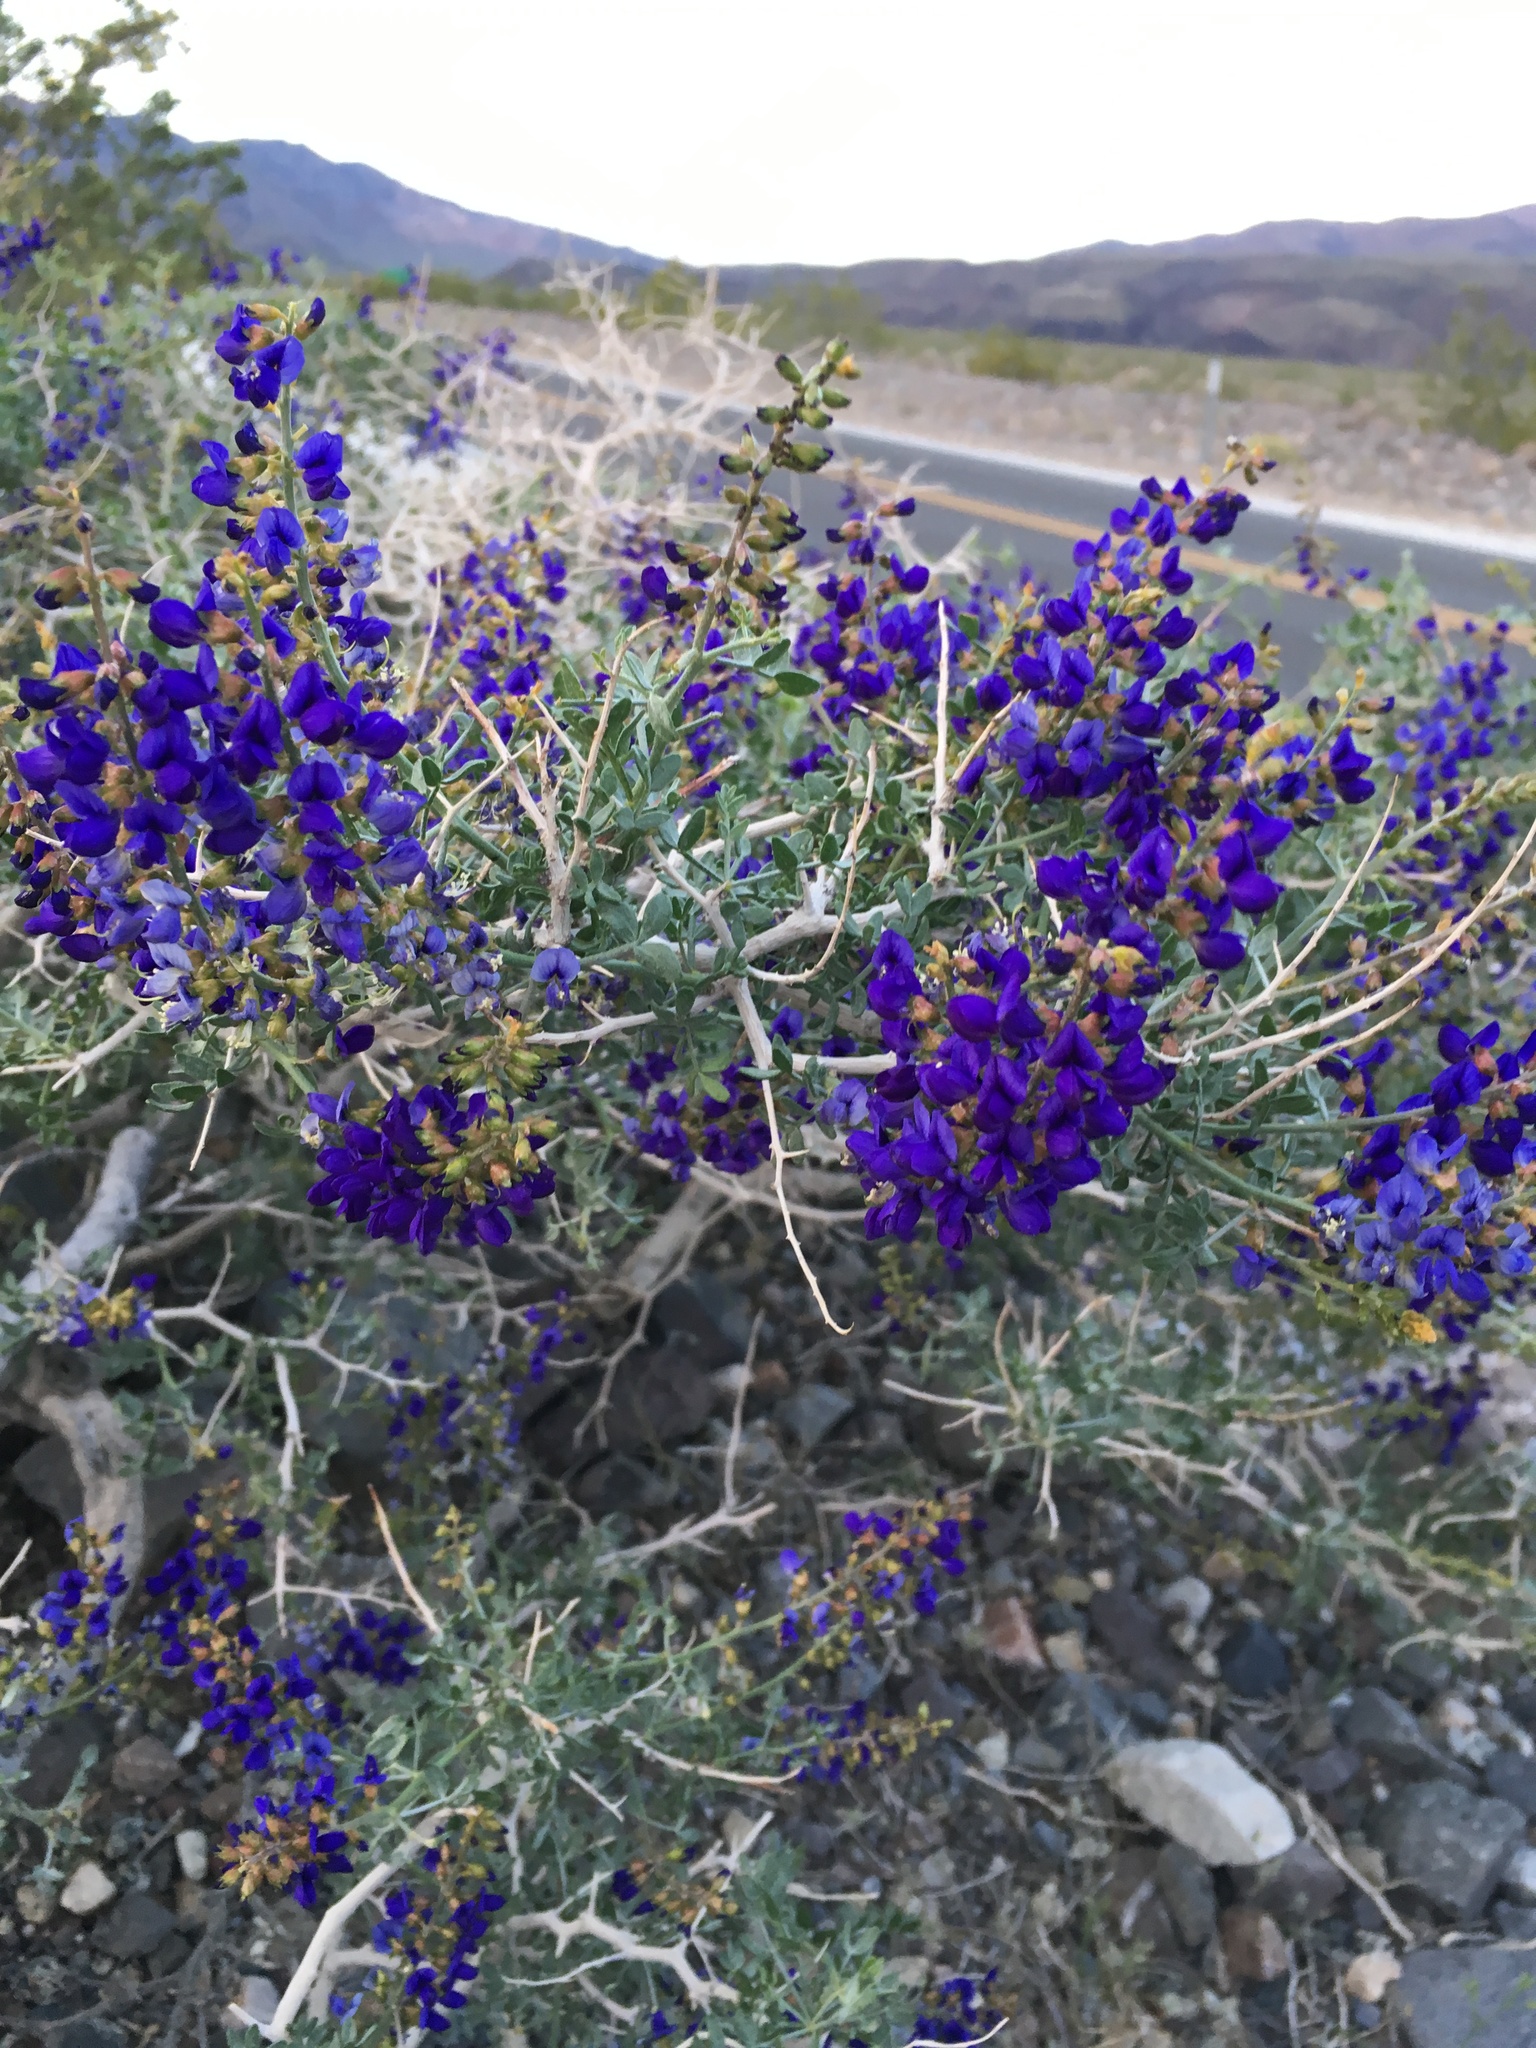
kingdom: Plantae
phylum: Tracheophyta
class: Magnoliopsida
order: Fabales
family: Fabaceae
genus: Psorothamnus
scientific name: Psorothamnus arborescens
